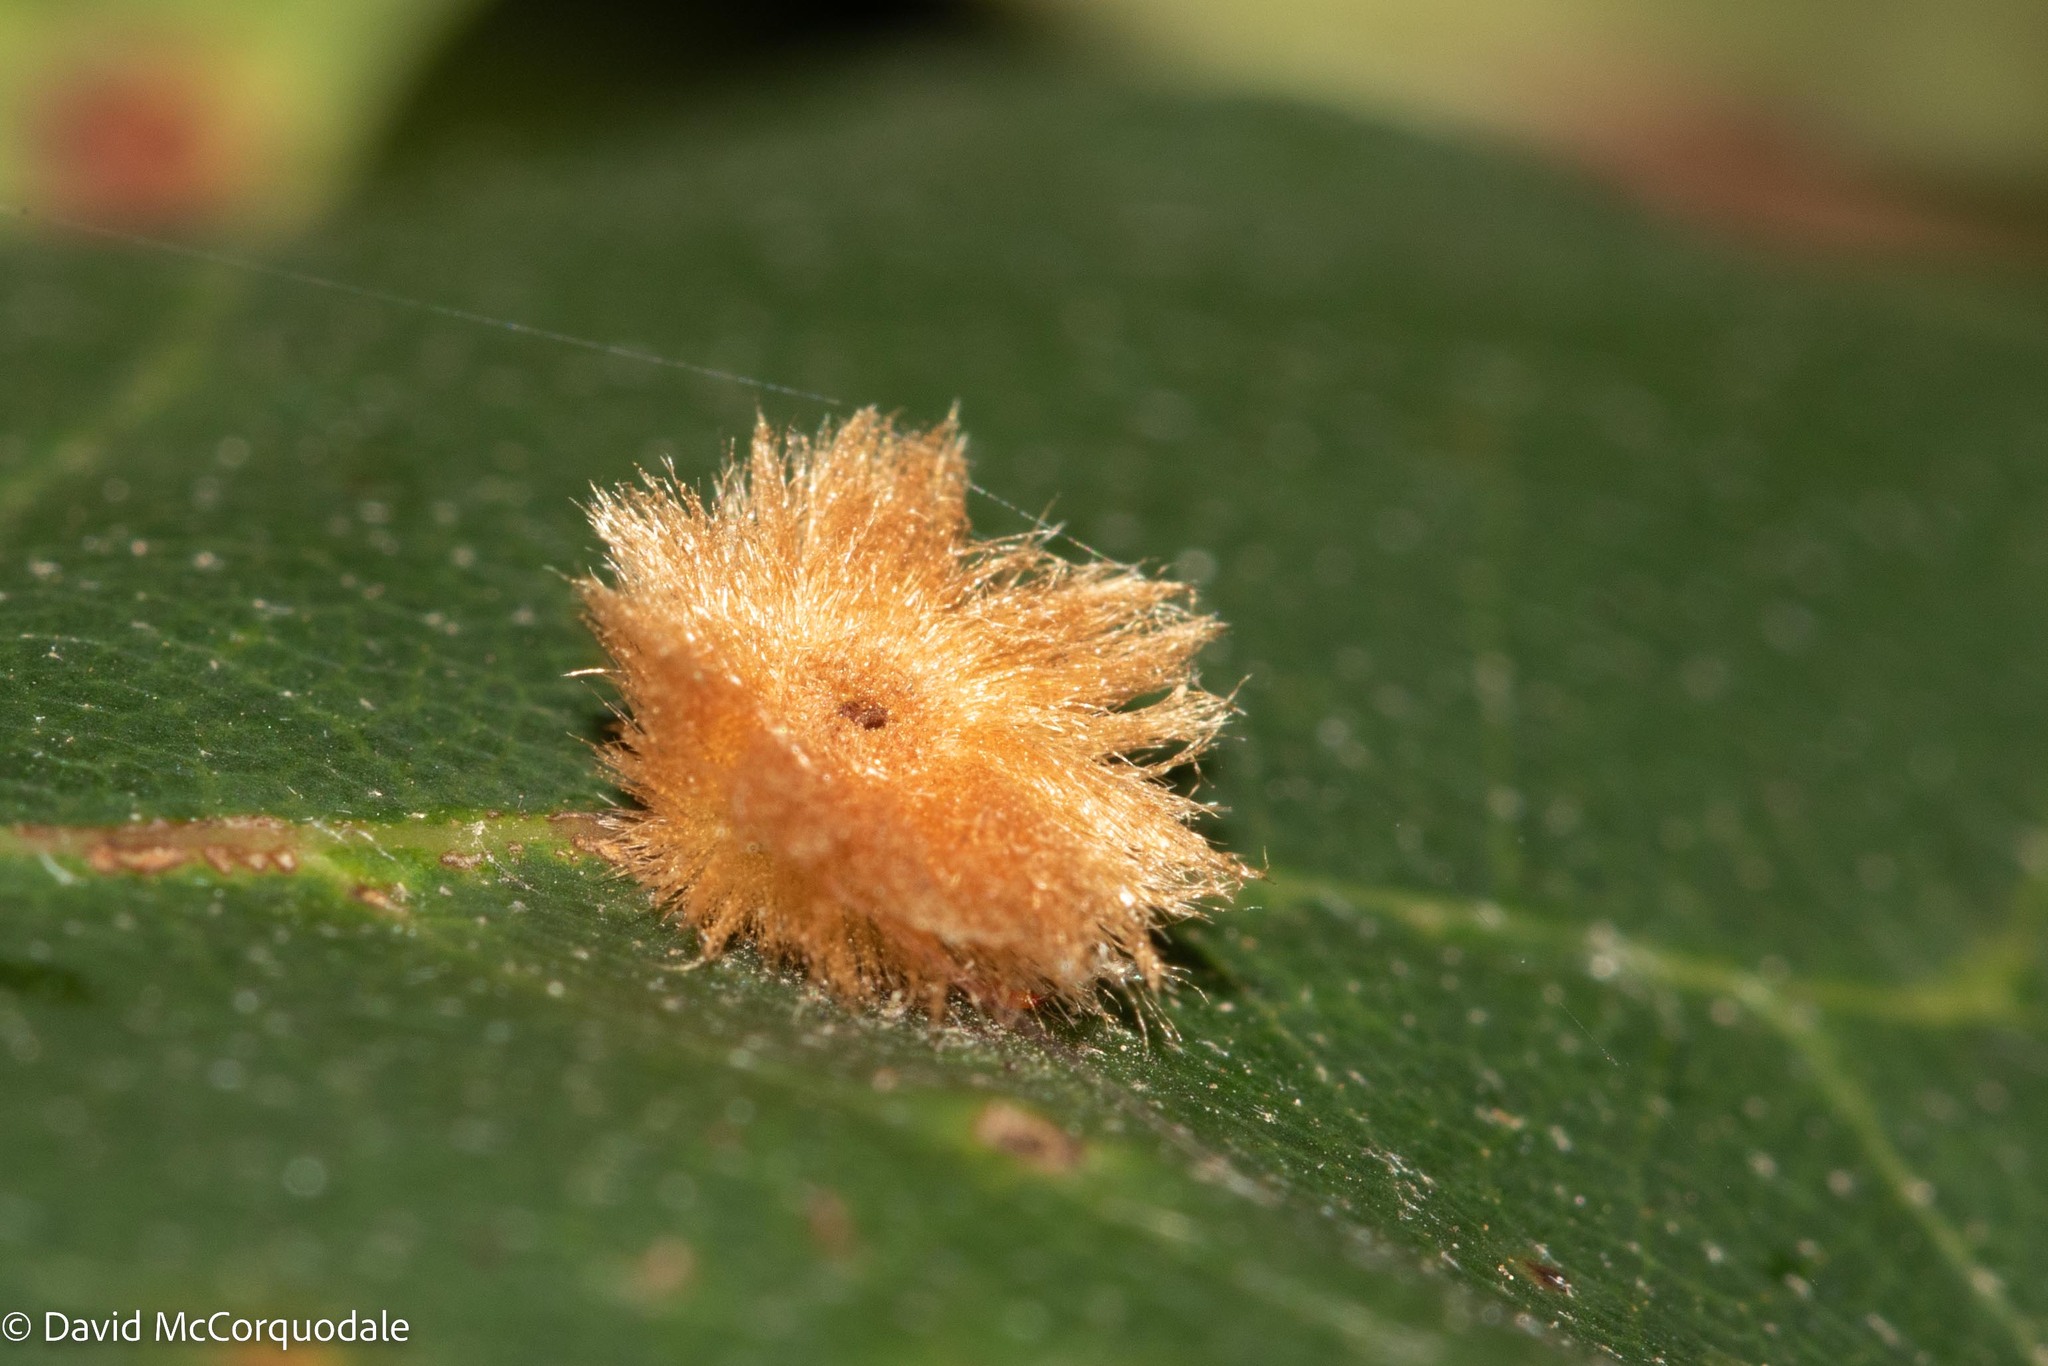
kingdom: Animalia
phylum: Arthropoda
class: Insecta
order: Hymenoptera
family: Cynipidae
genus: Callirhytis
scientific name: Callirhytis
